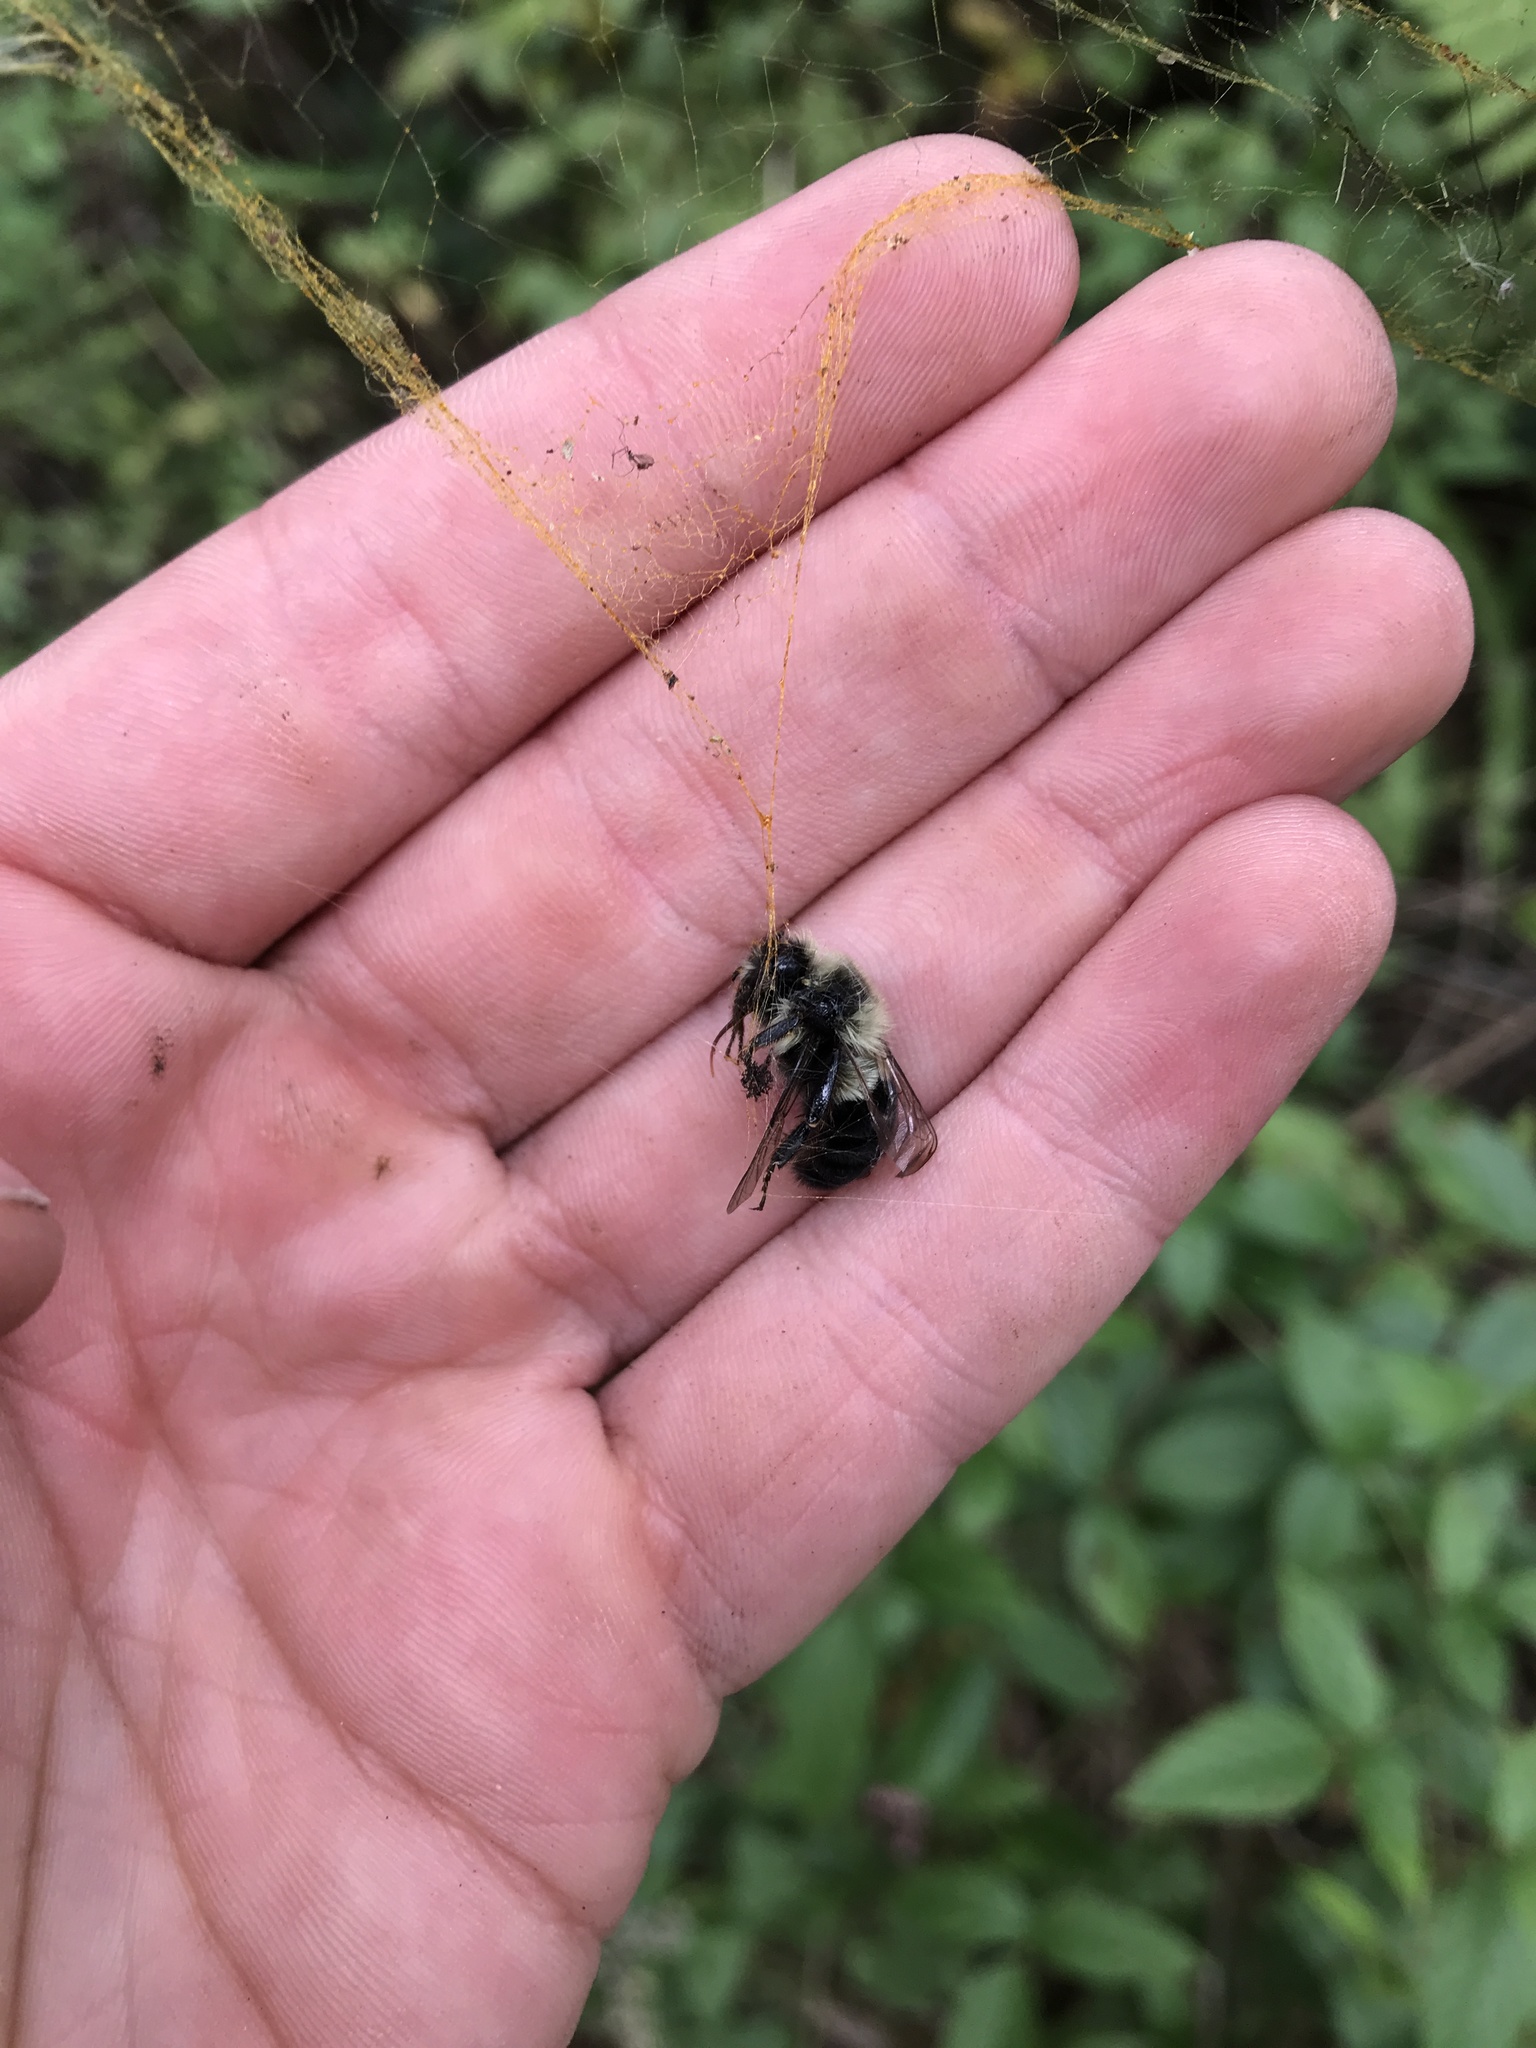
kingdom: Animalia
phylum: Arthropoda
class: Insecta
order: Hymenoptera
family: Apidae
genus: Bombus
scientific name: Bombus impatiens
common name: Common eastern bumble bee
